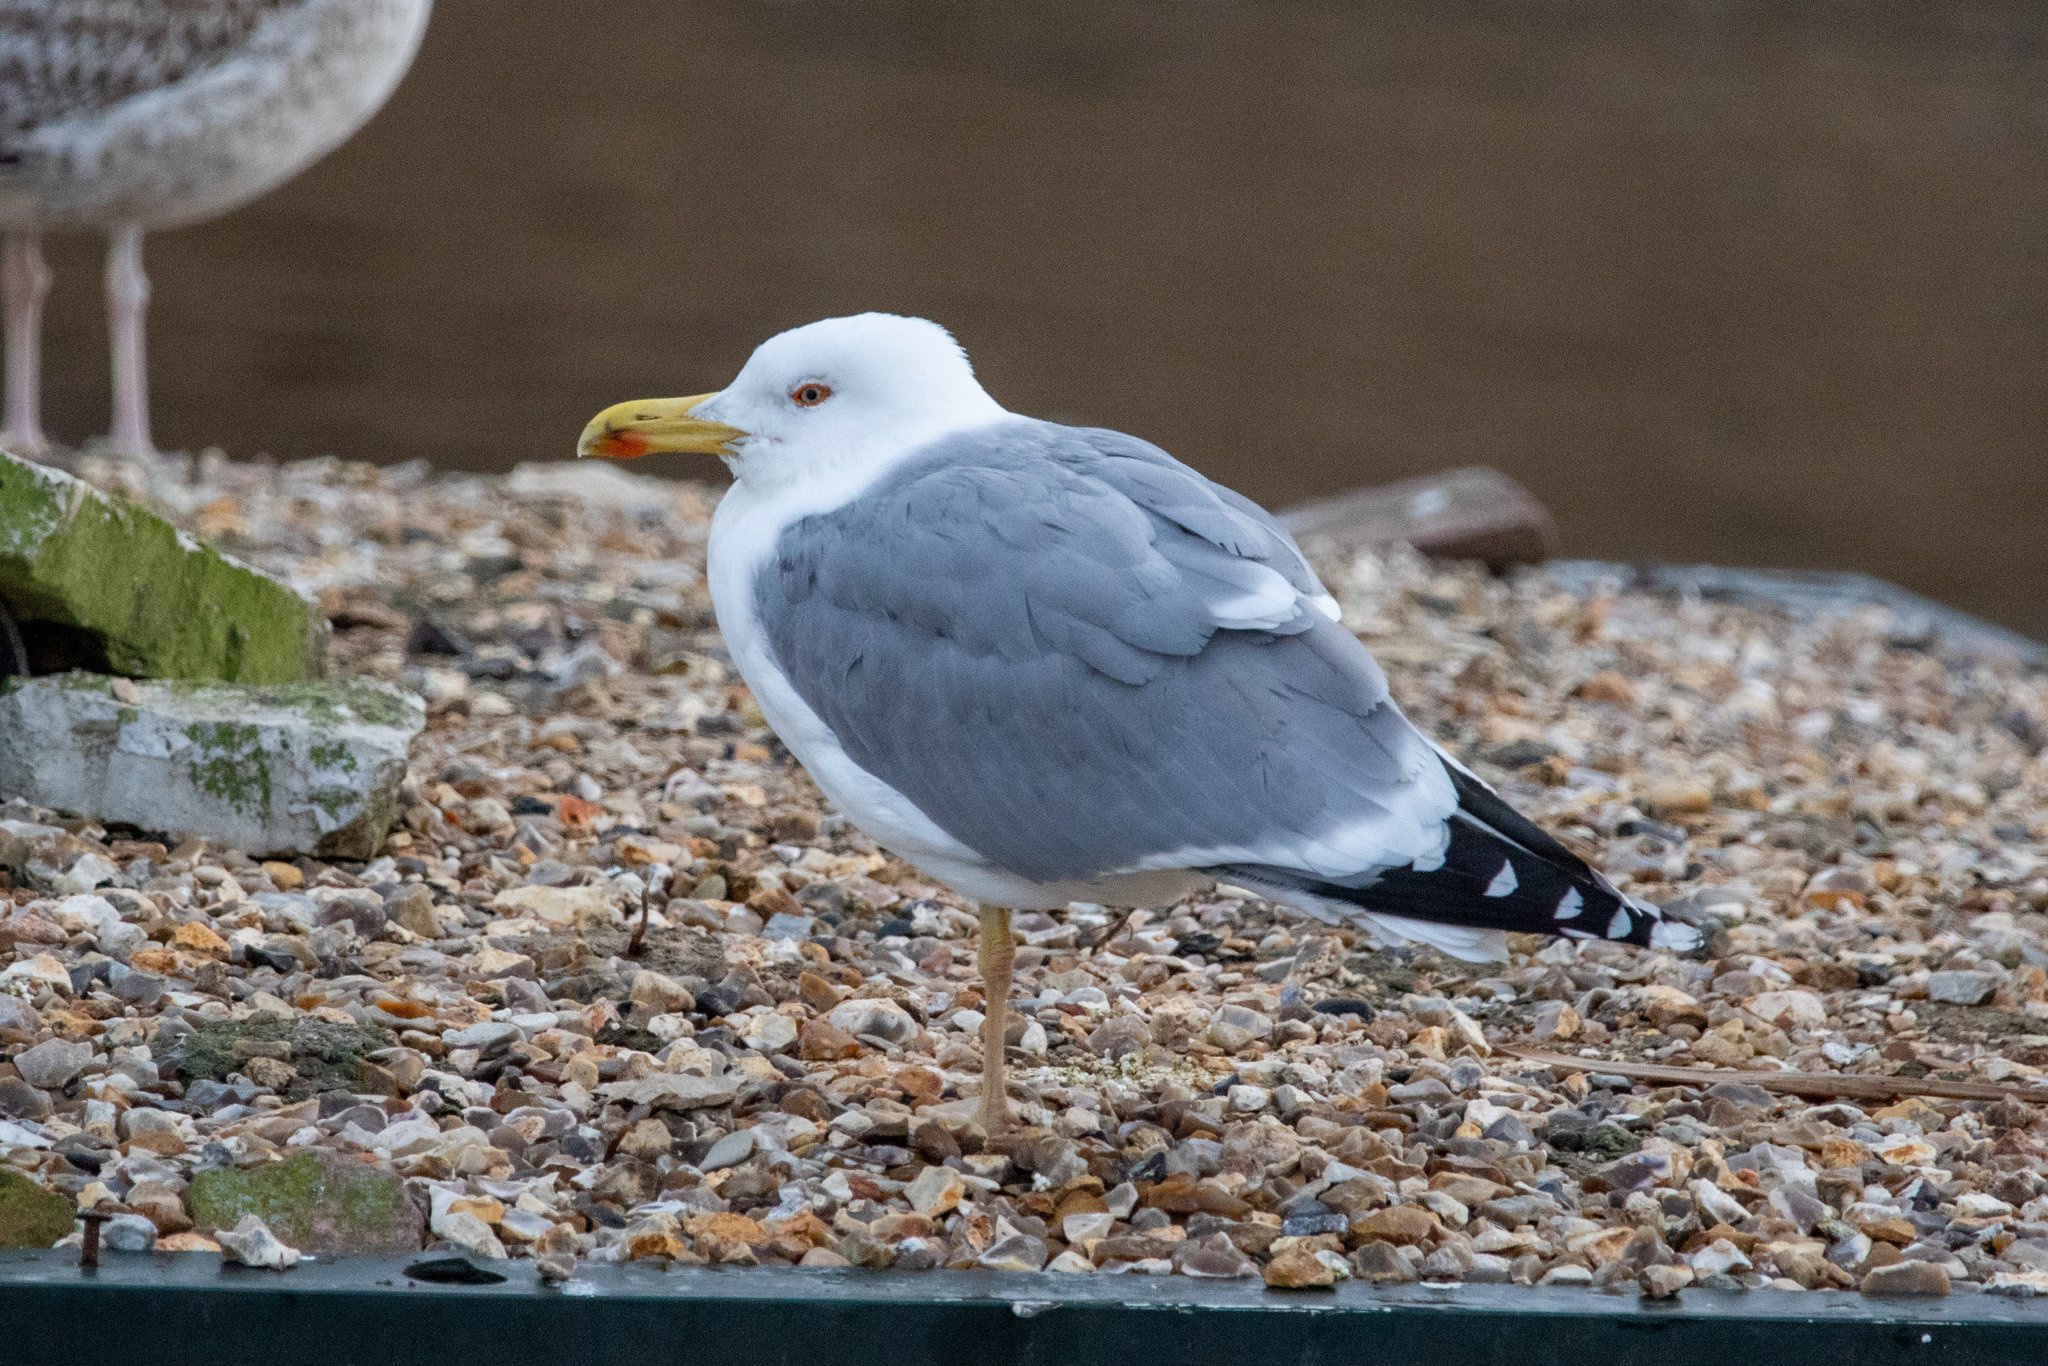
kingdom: Animalia
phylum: Chordata
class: Aves
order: Charadriiformes
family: Laridae
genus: Larus
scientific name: Larus michahellis
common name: Yellow-legged gull
